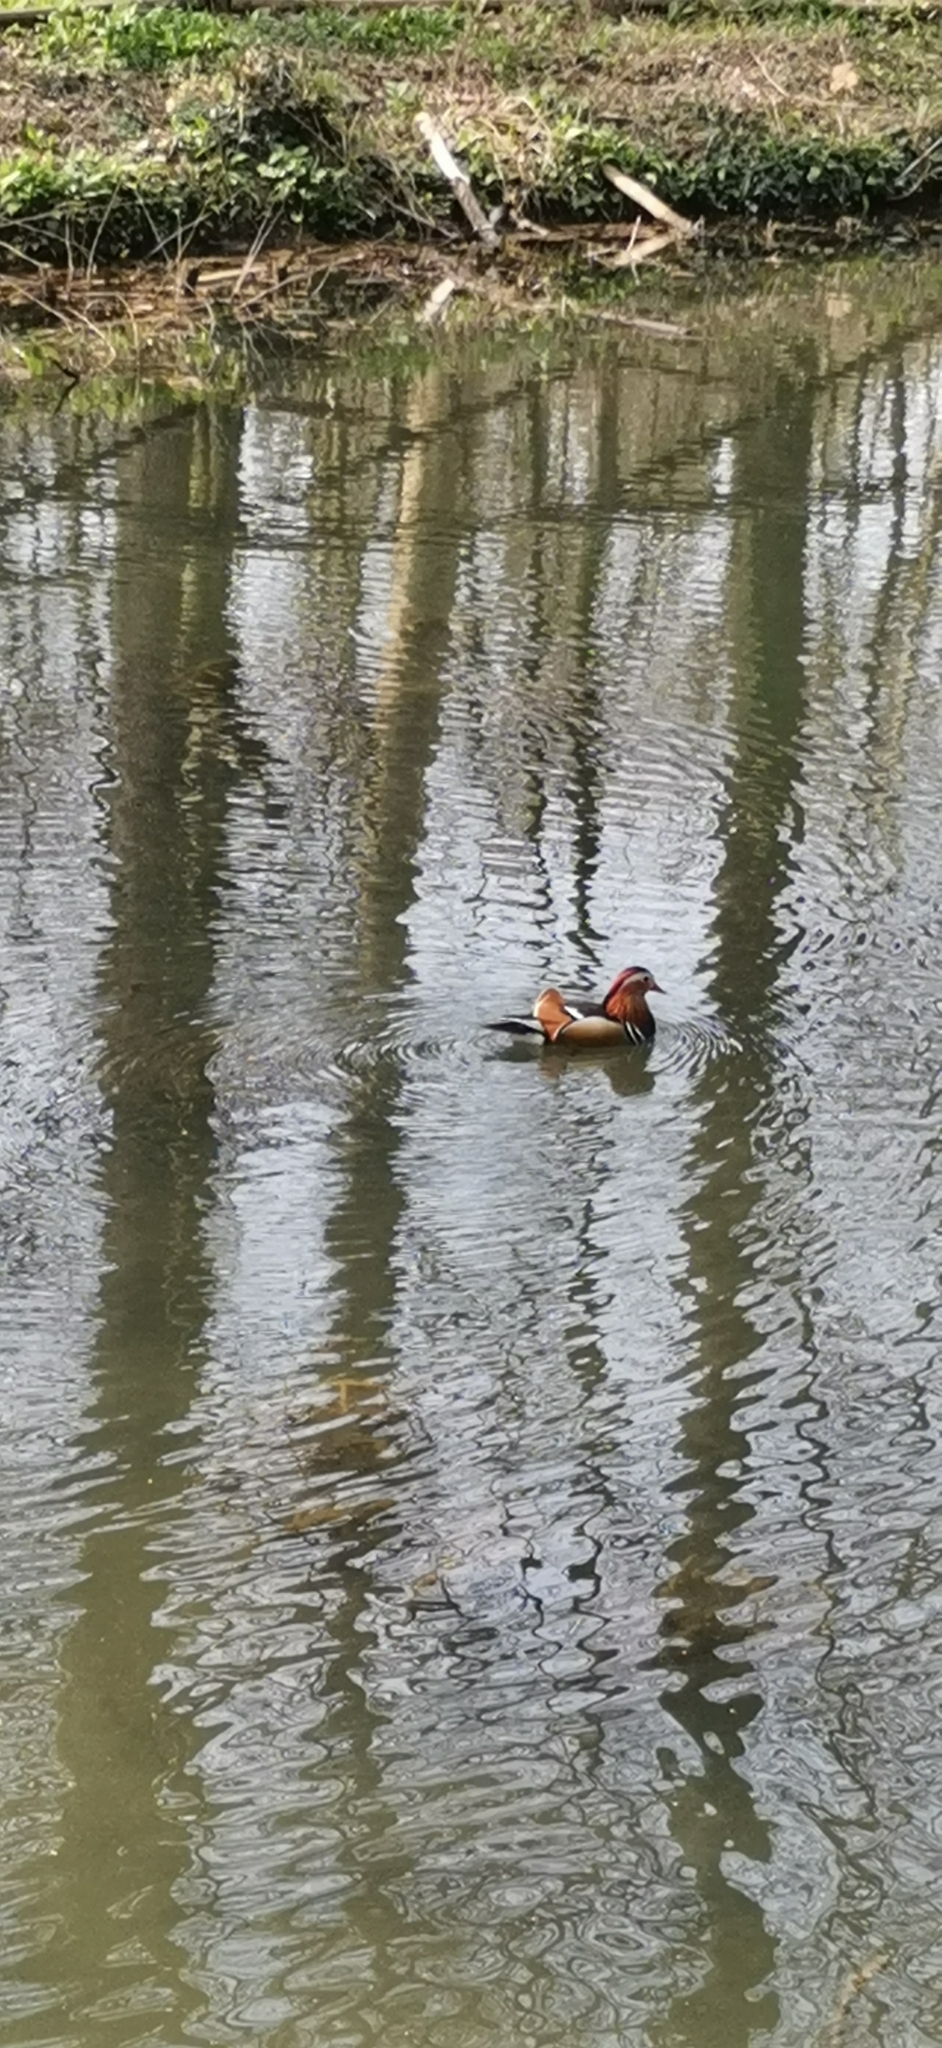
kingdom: Animalia
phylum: Chordata
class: Aves
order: Anseriformes
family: Anatidae
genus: Aix
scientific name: Aix galericulata
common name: Mandarin duck
